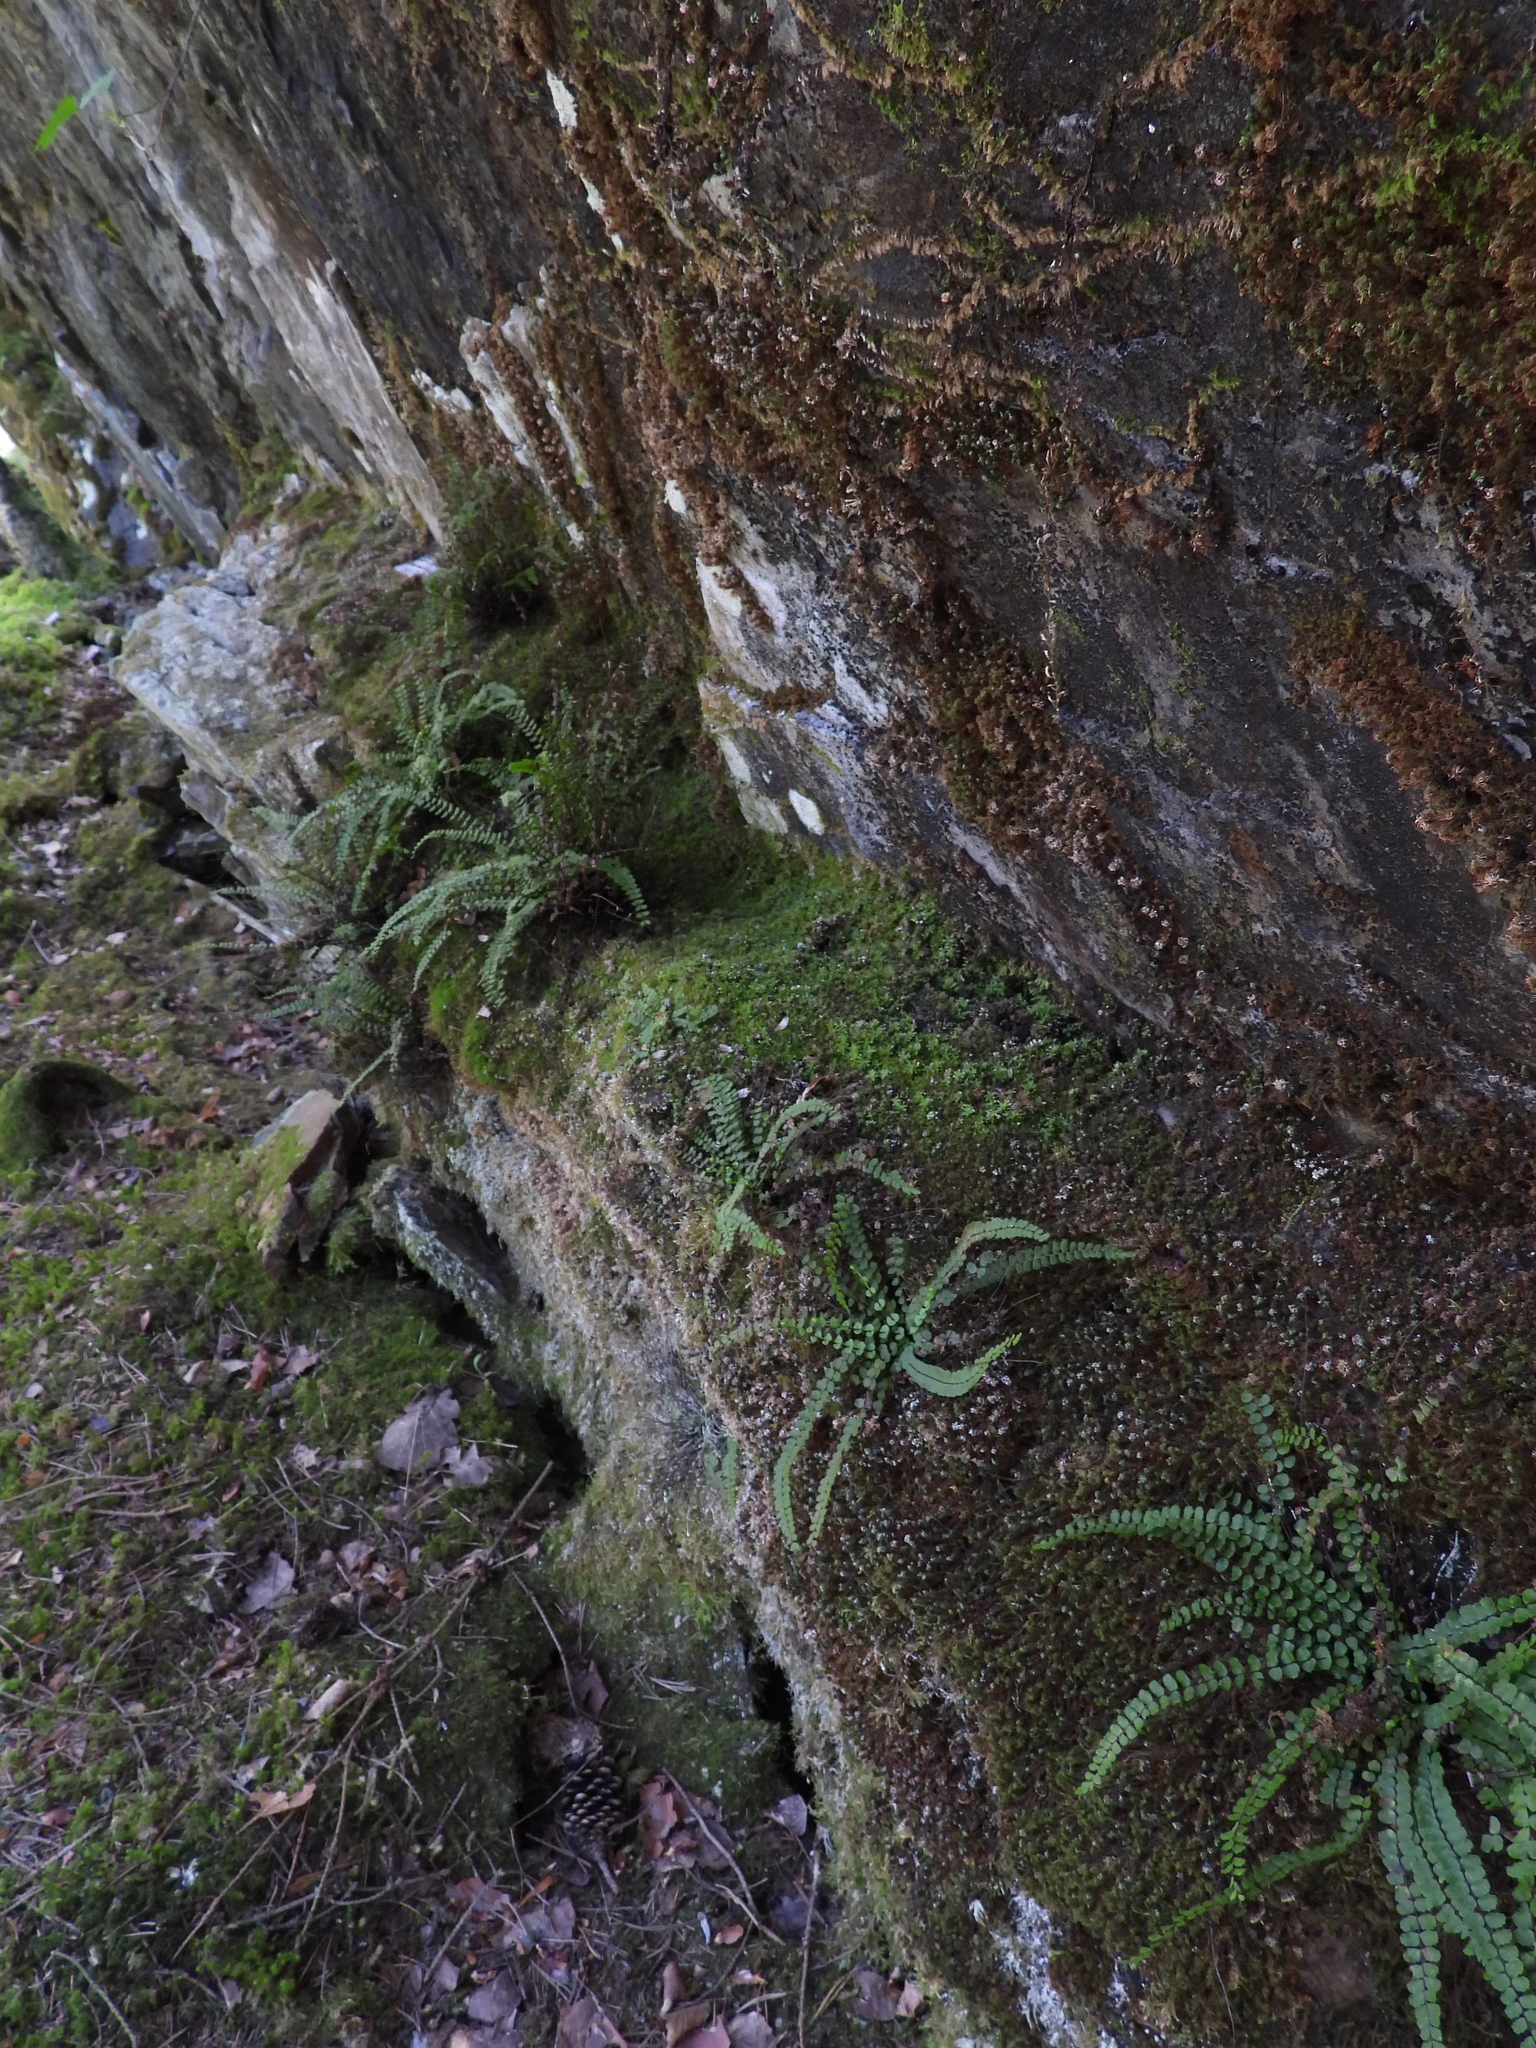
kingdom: Plantae
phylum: Tracheophyta
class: Polypodiopsida
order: Polypodiales
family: Aspleniaceae
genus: Asplenium
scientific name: Asplenium trichomanes
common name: Maidenhair spleenwort
